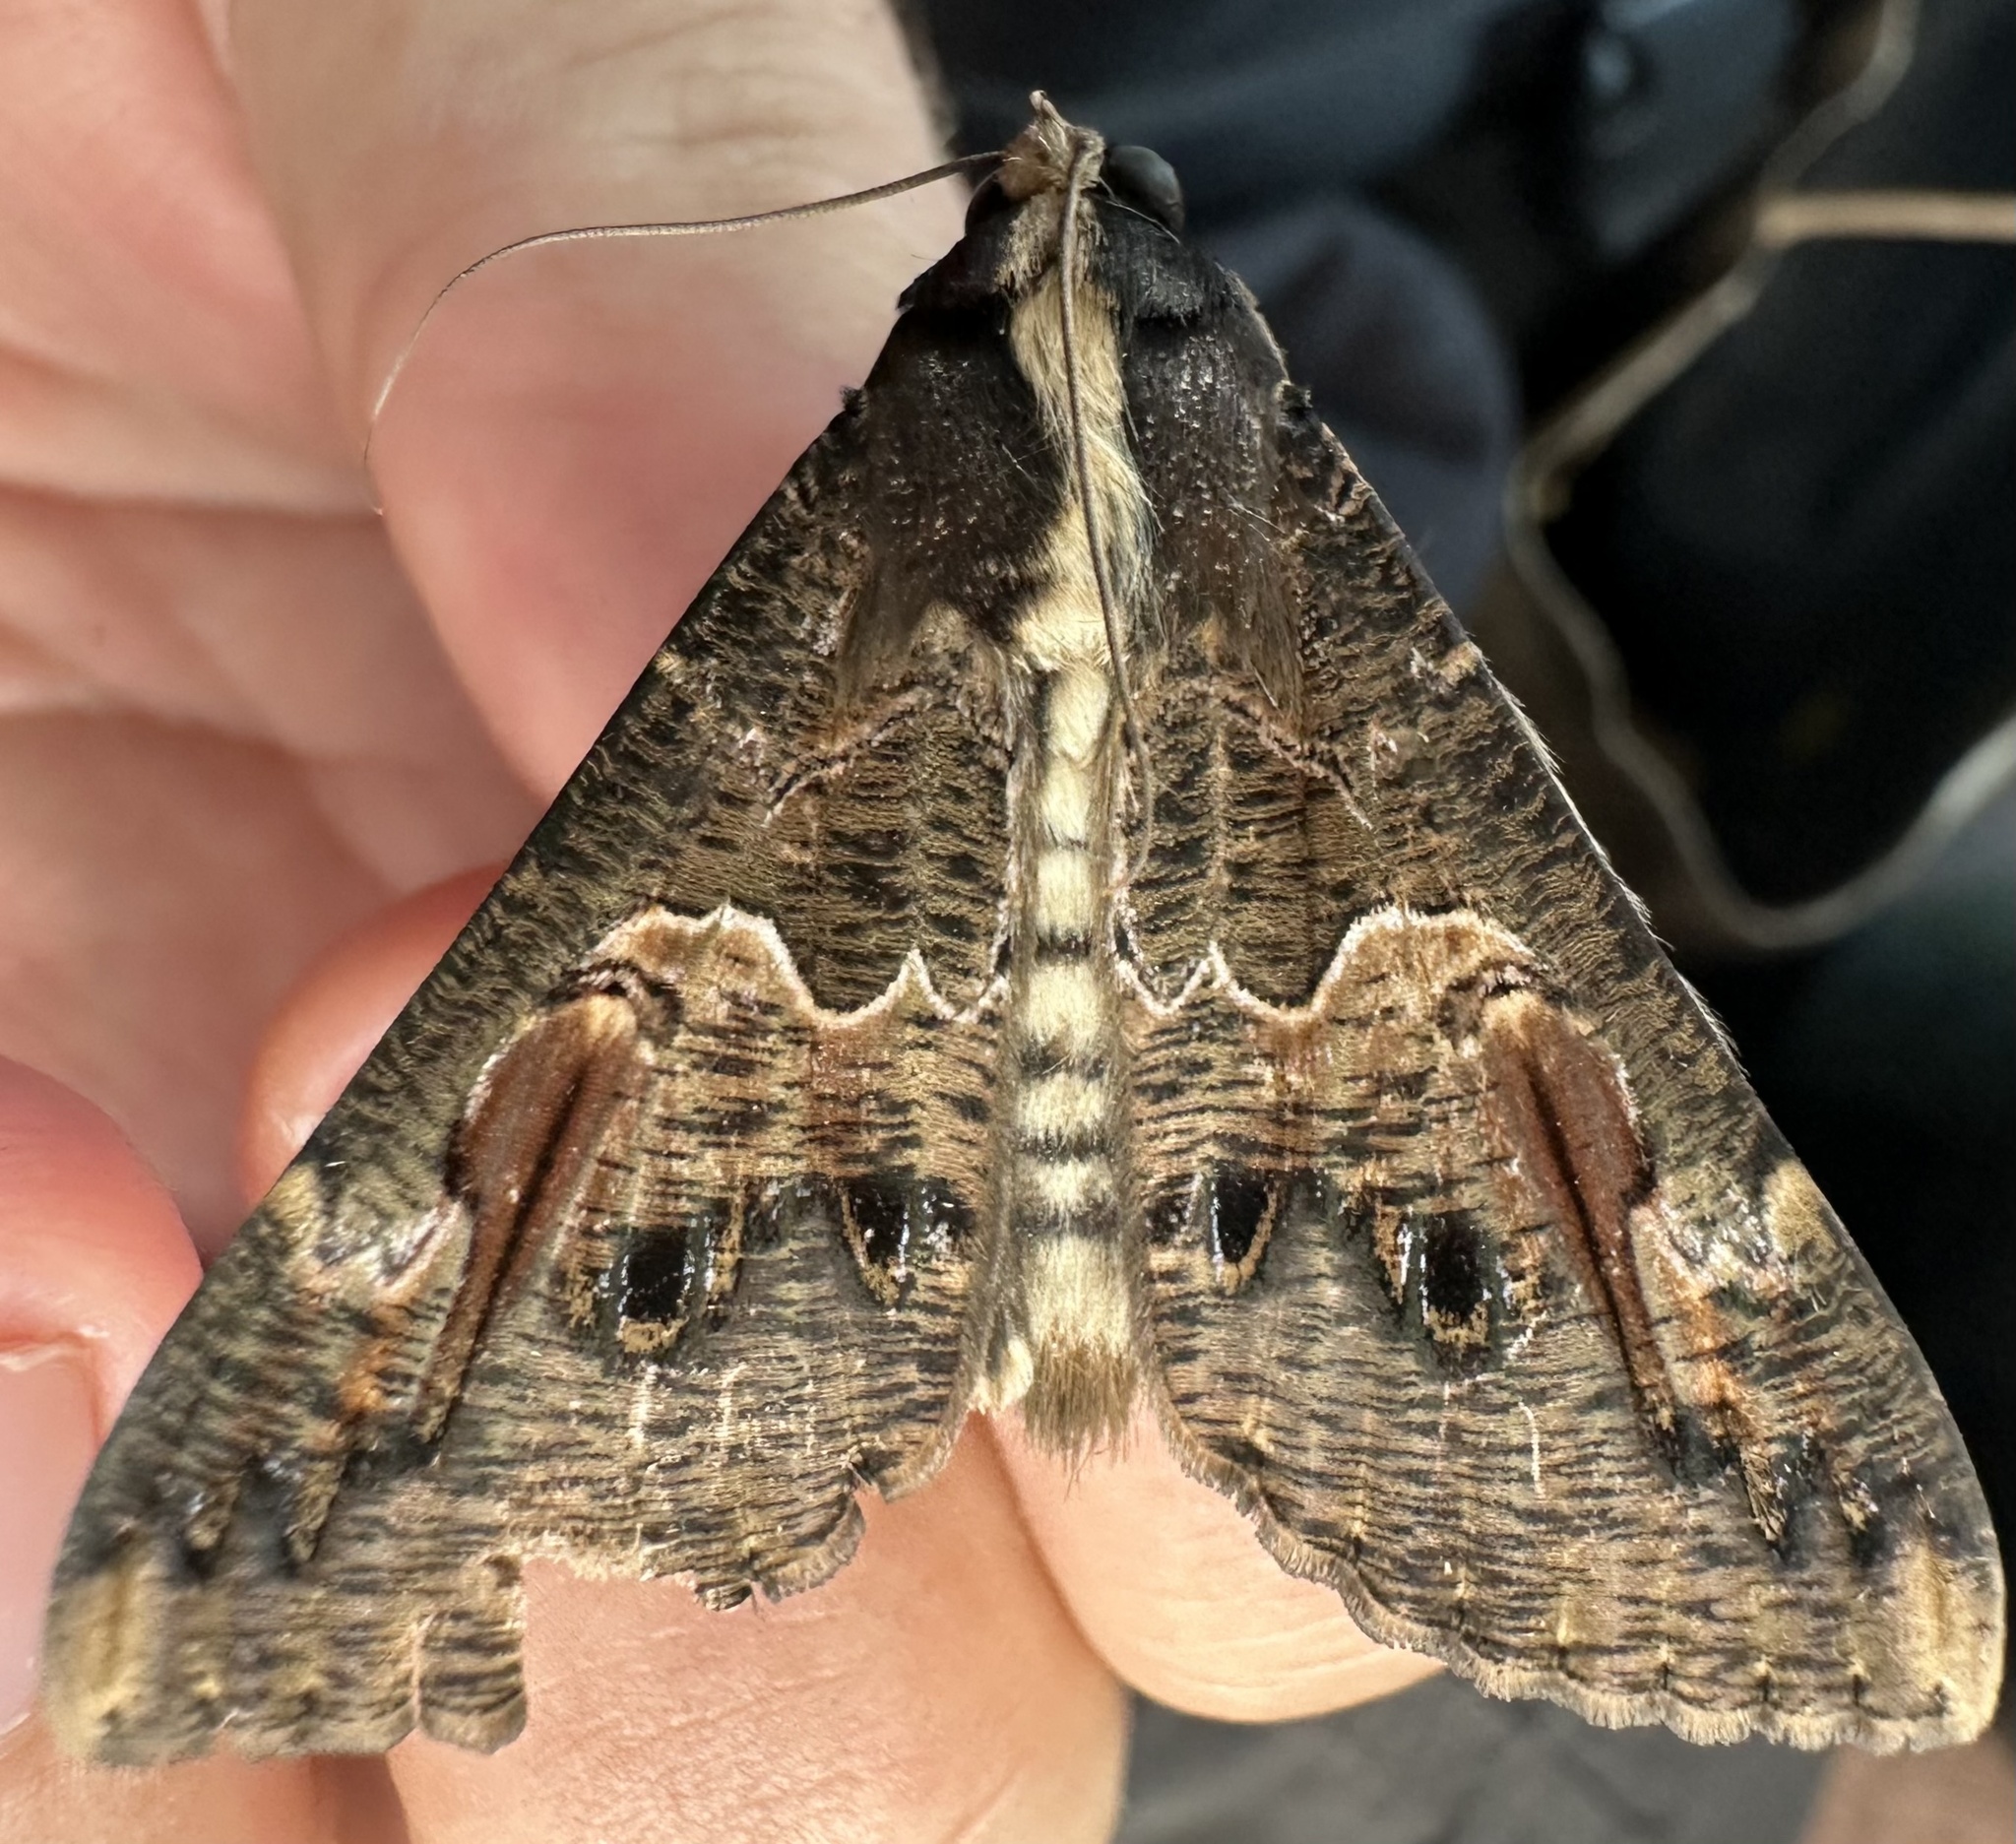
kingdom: Animalia
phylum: Arthropoda
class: Insecta
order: Lepidoptera
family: Erebidae
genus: Sphingomorpha
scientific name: Sphingomorpha chlorea
